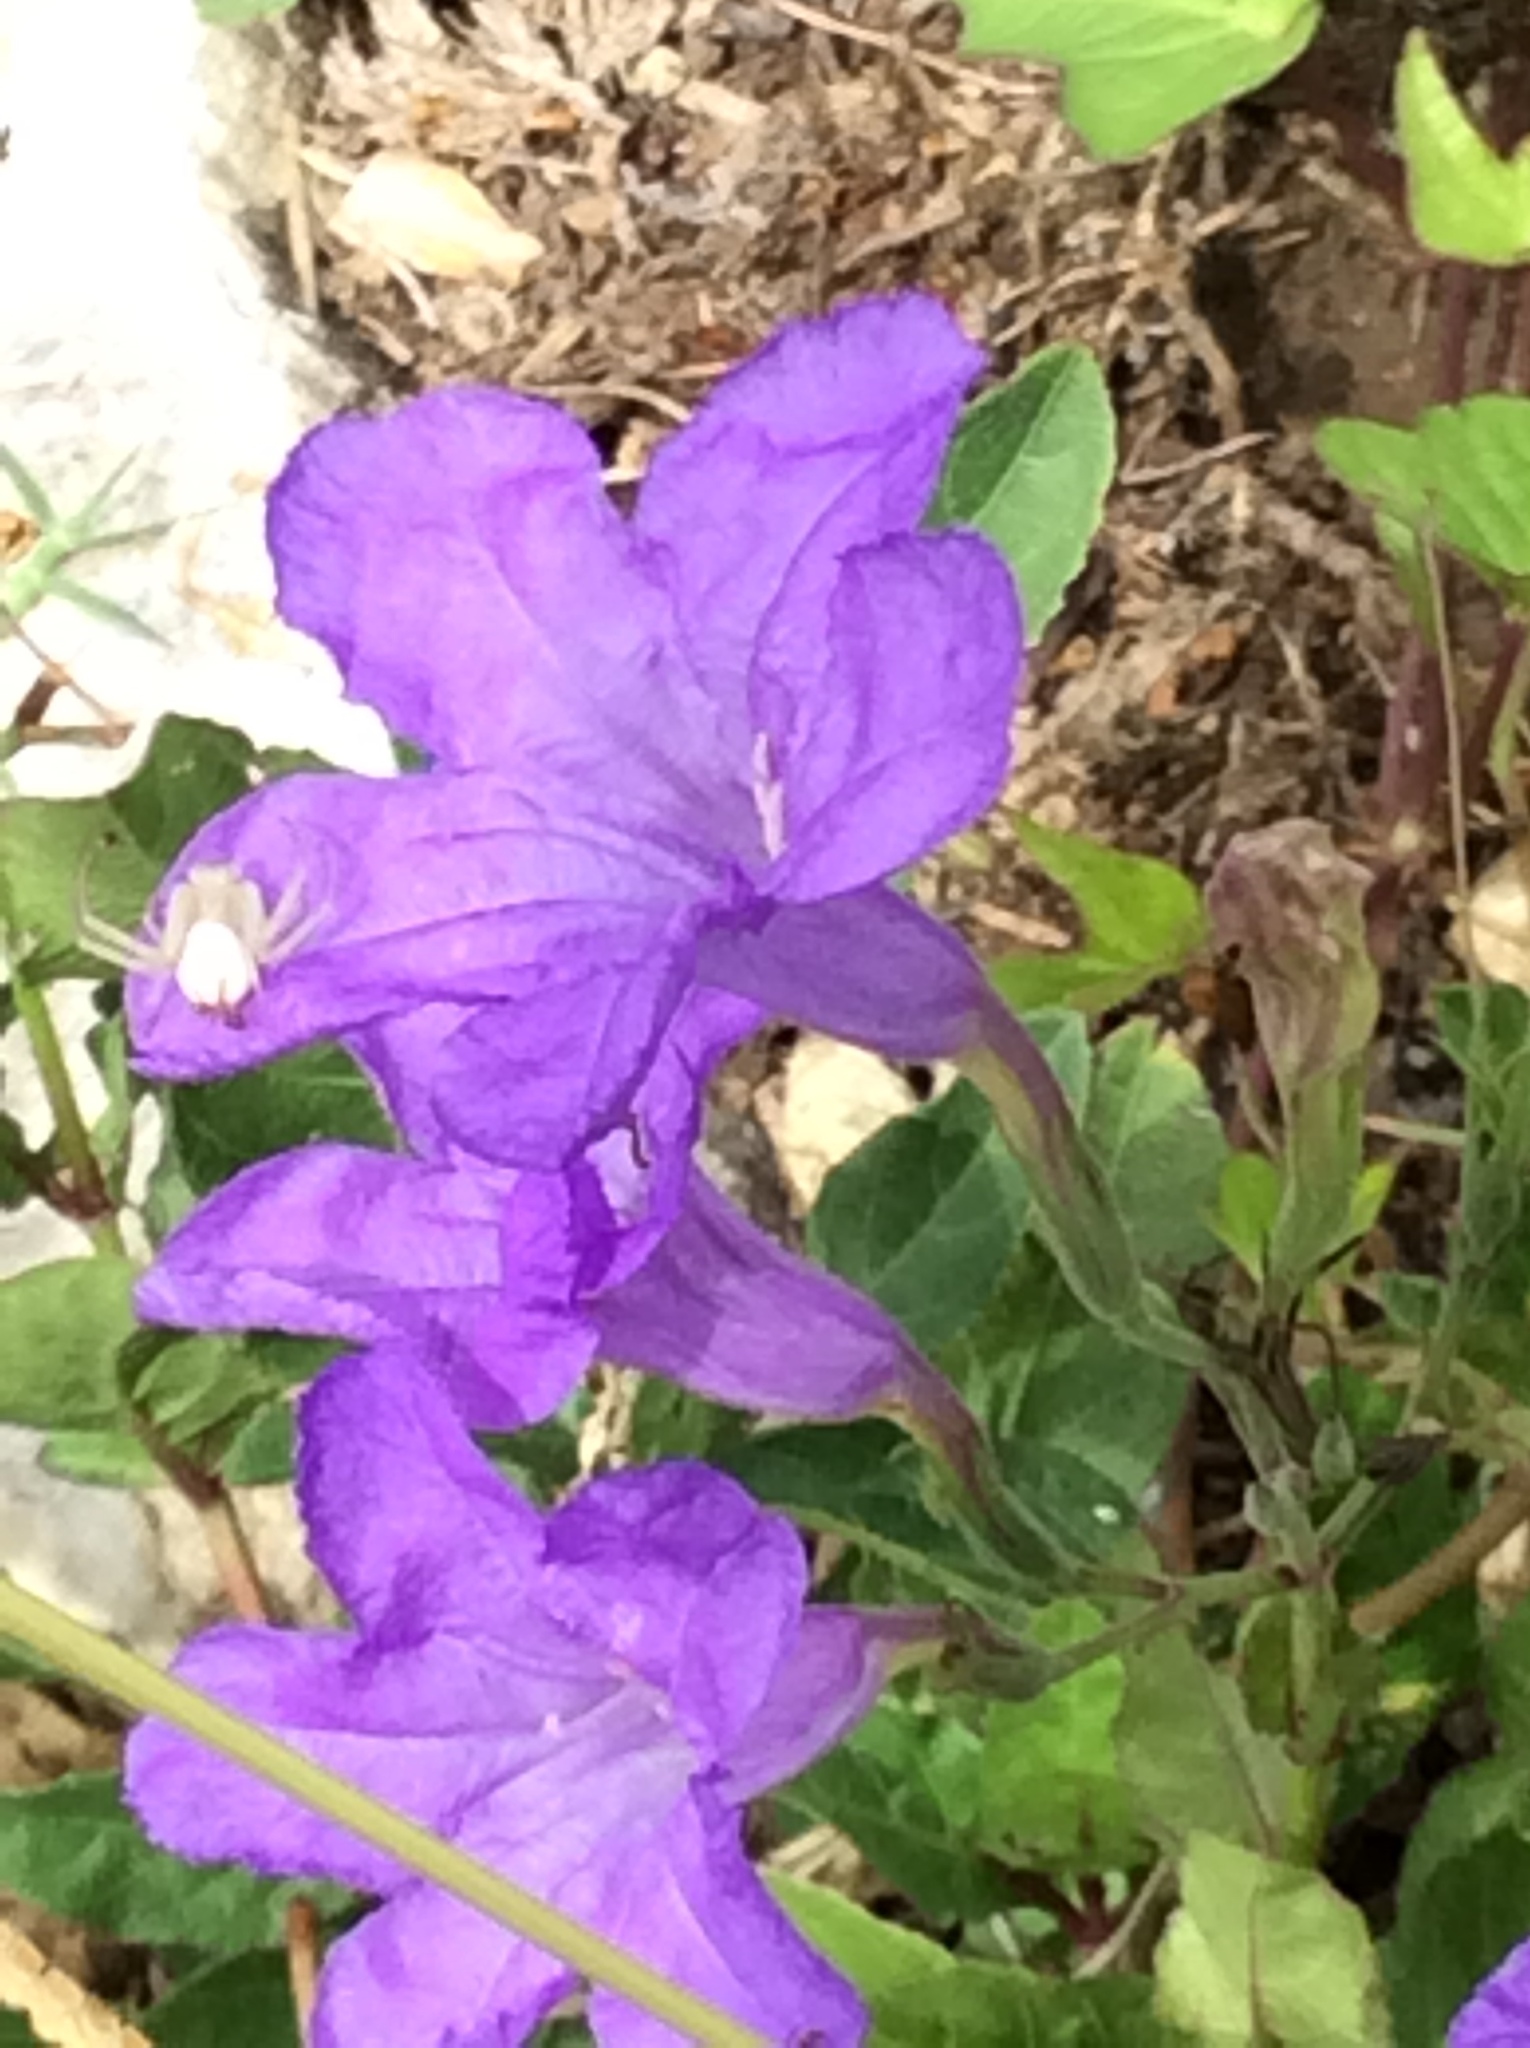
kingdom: Plantae
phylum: Tracheophyta
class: Magnoliopsida
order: Lamiales
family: Acanthaceae
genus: Ruellia
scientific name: Ruellia ciliatiflora
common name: Hairyflower wild petunia
